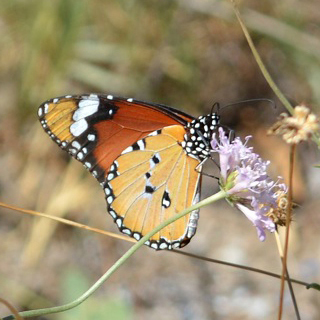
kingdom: Animalia
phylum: Arthropoda
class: Insecta
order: Lepidoptera
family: Nymphalidae
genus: Danaus
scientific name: Danaus chrysippus
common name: Plain tiger
